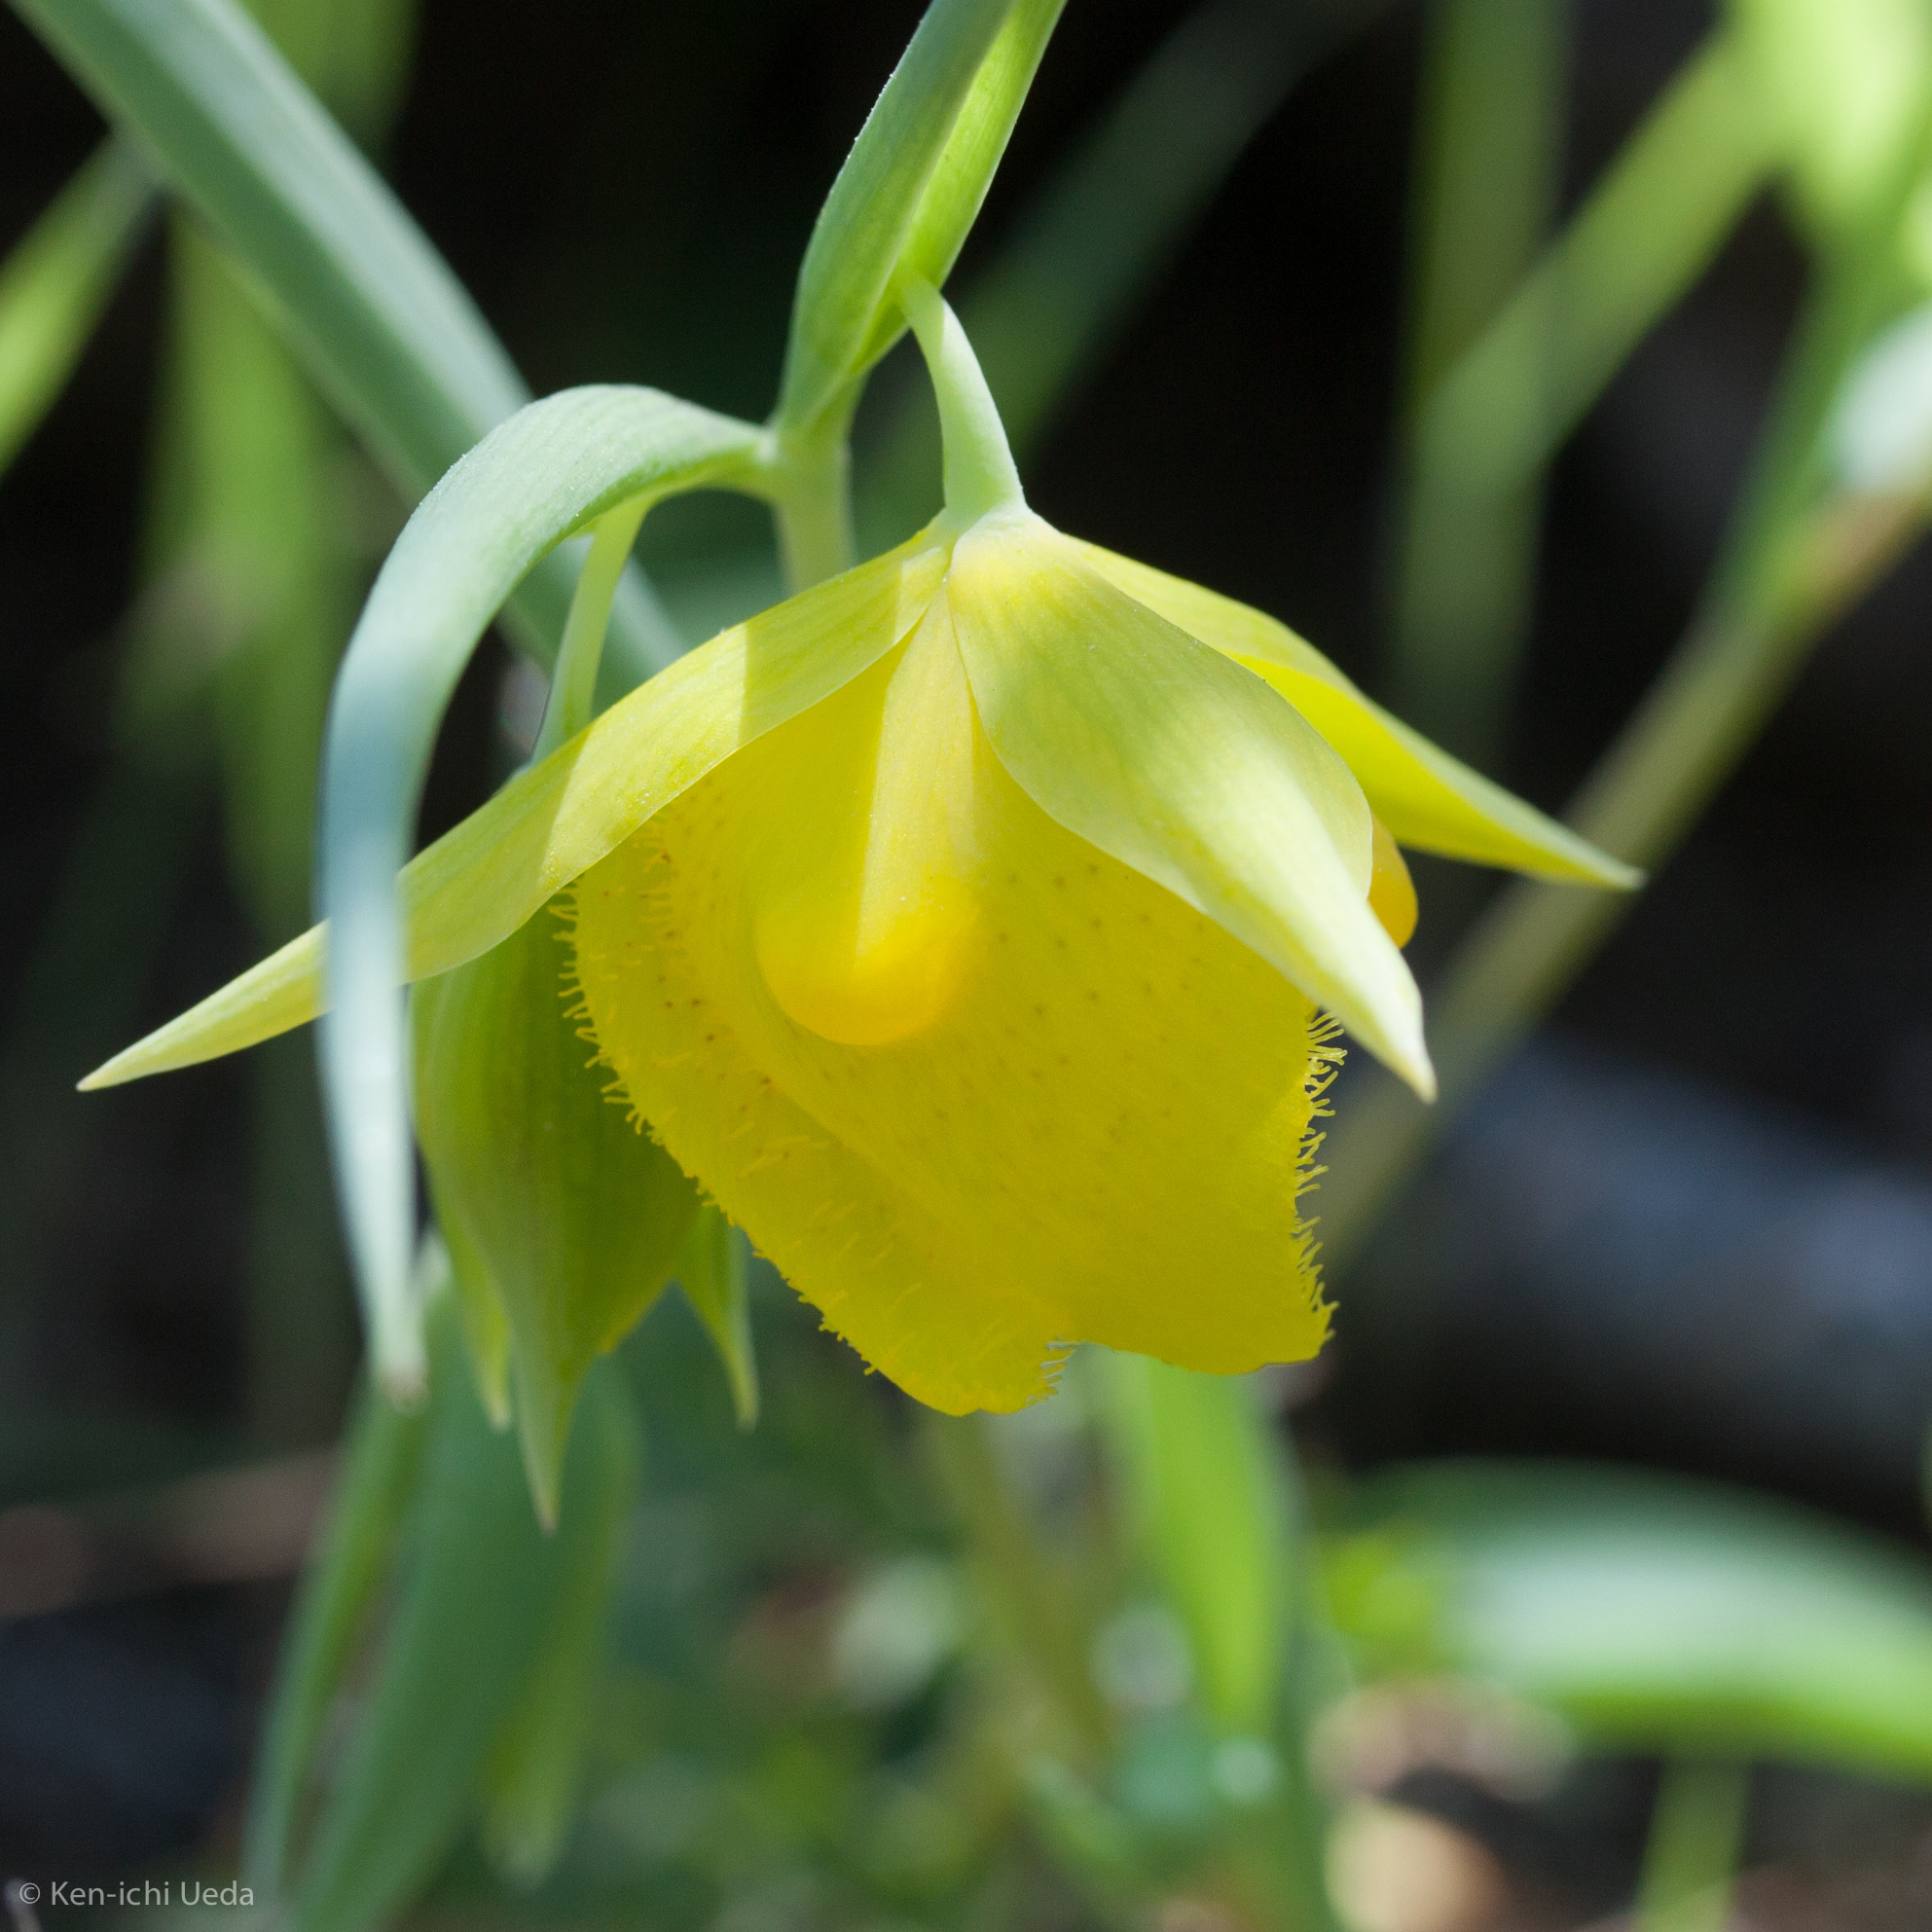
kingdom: Plantae
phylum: Tracheophyta
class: Liliopsida
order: Liliales
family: Liliaceae
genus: Calochortus
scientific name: Calochortus pulchellus
